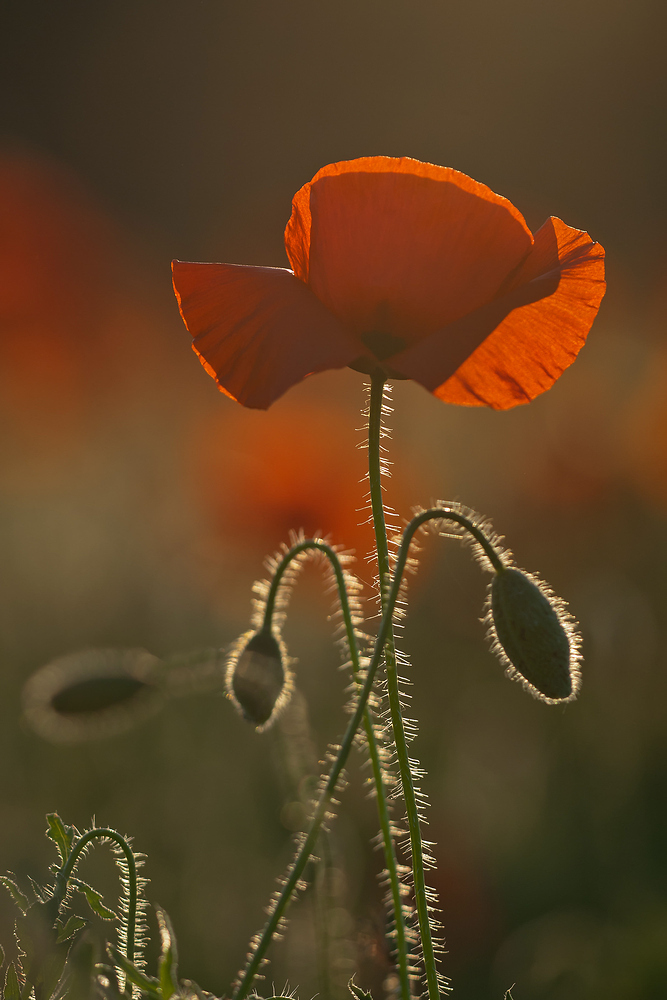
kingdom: Plantae
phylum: Tracheophyta
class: Magnoliopsida
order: Ranunculales
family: Papaveraceae
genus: Papaver
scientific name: Papaver rhoeas
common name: Corn poppy
